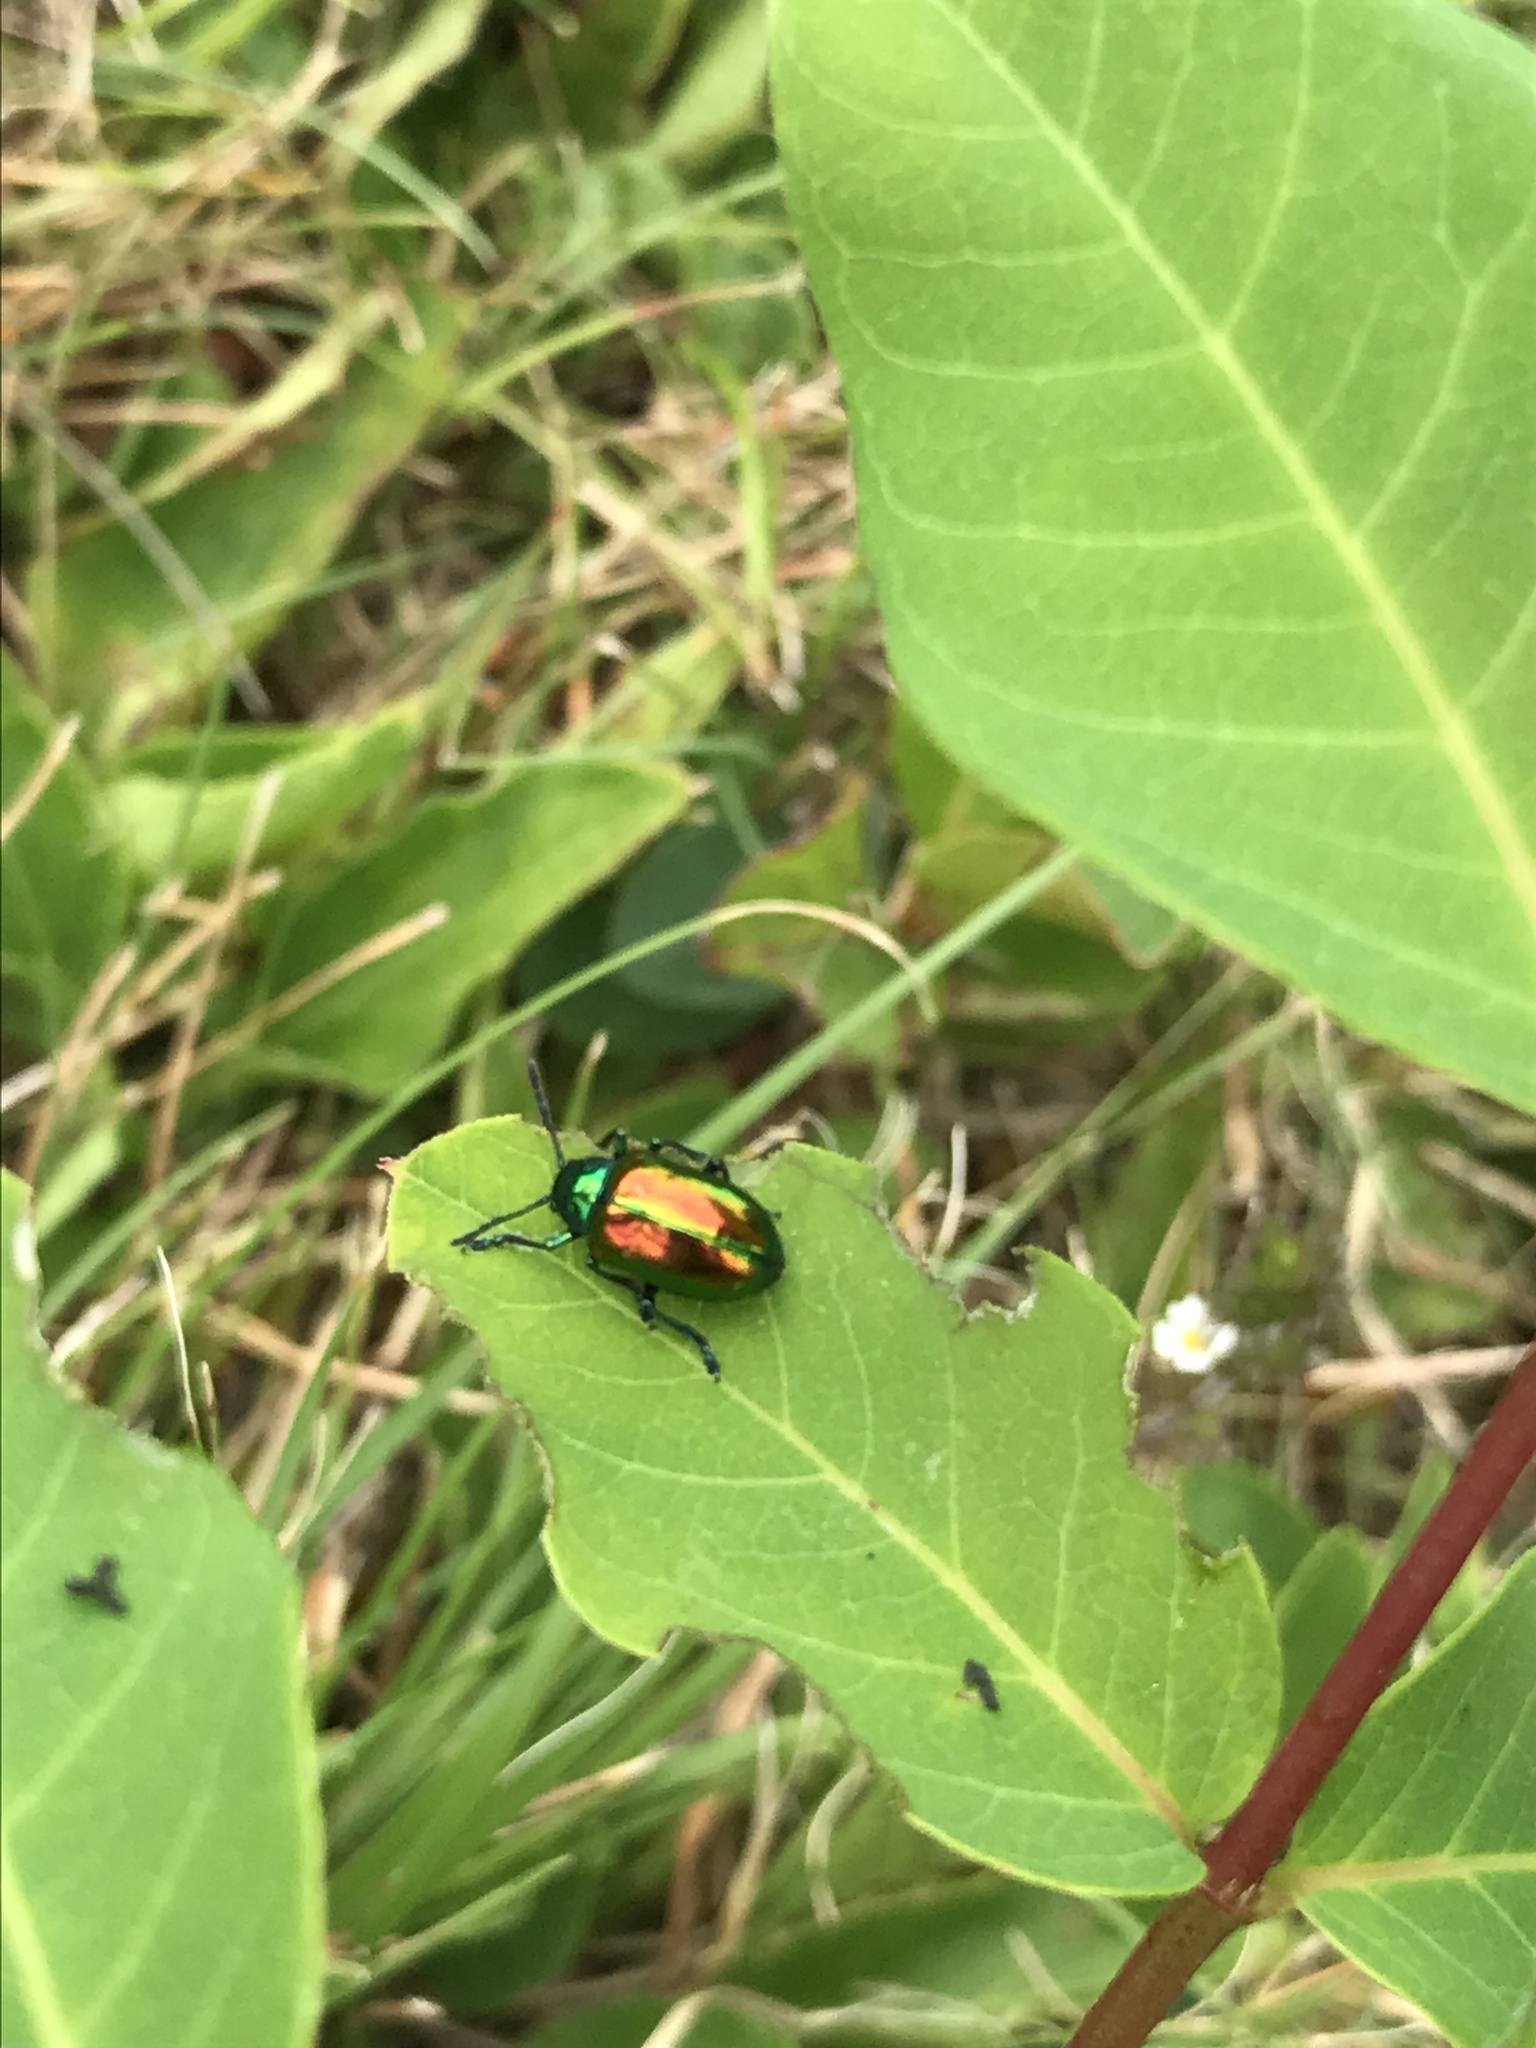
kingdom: Animalia
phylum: Arthropoda
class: Insecta
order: Coleoptera
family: Chrysomelidae
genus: Chrysochus
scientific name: Chrysochus auratus
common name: Dogbane leaf beetle
